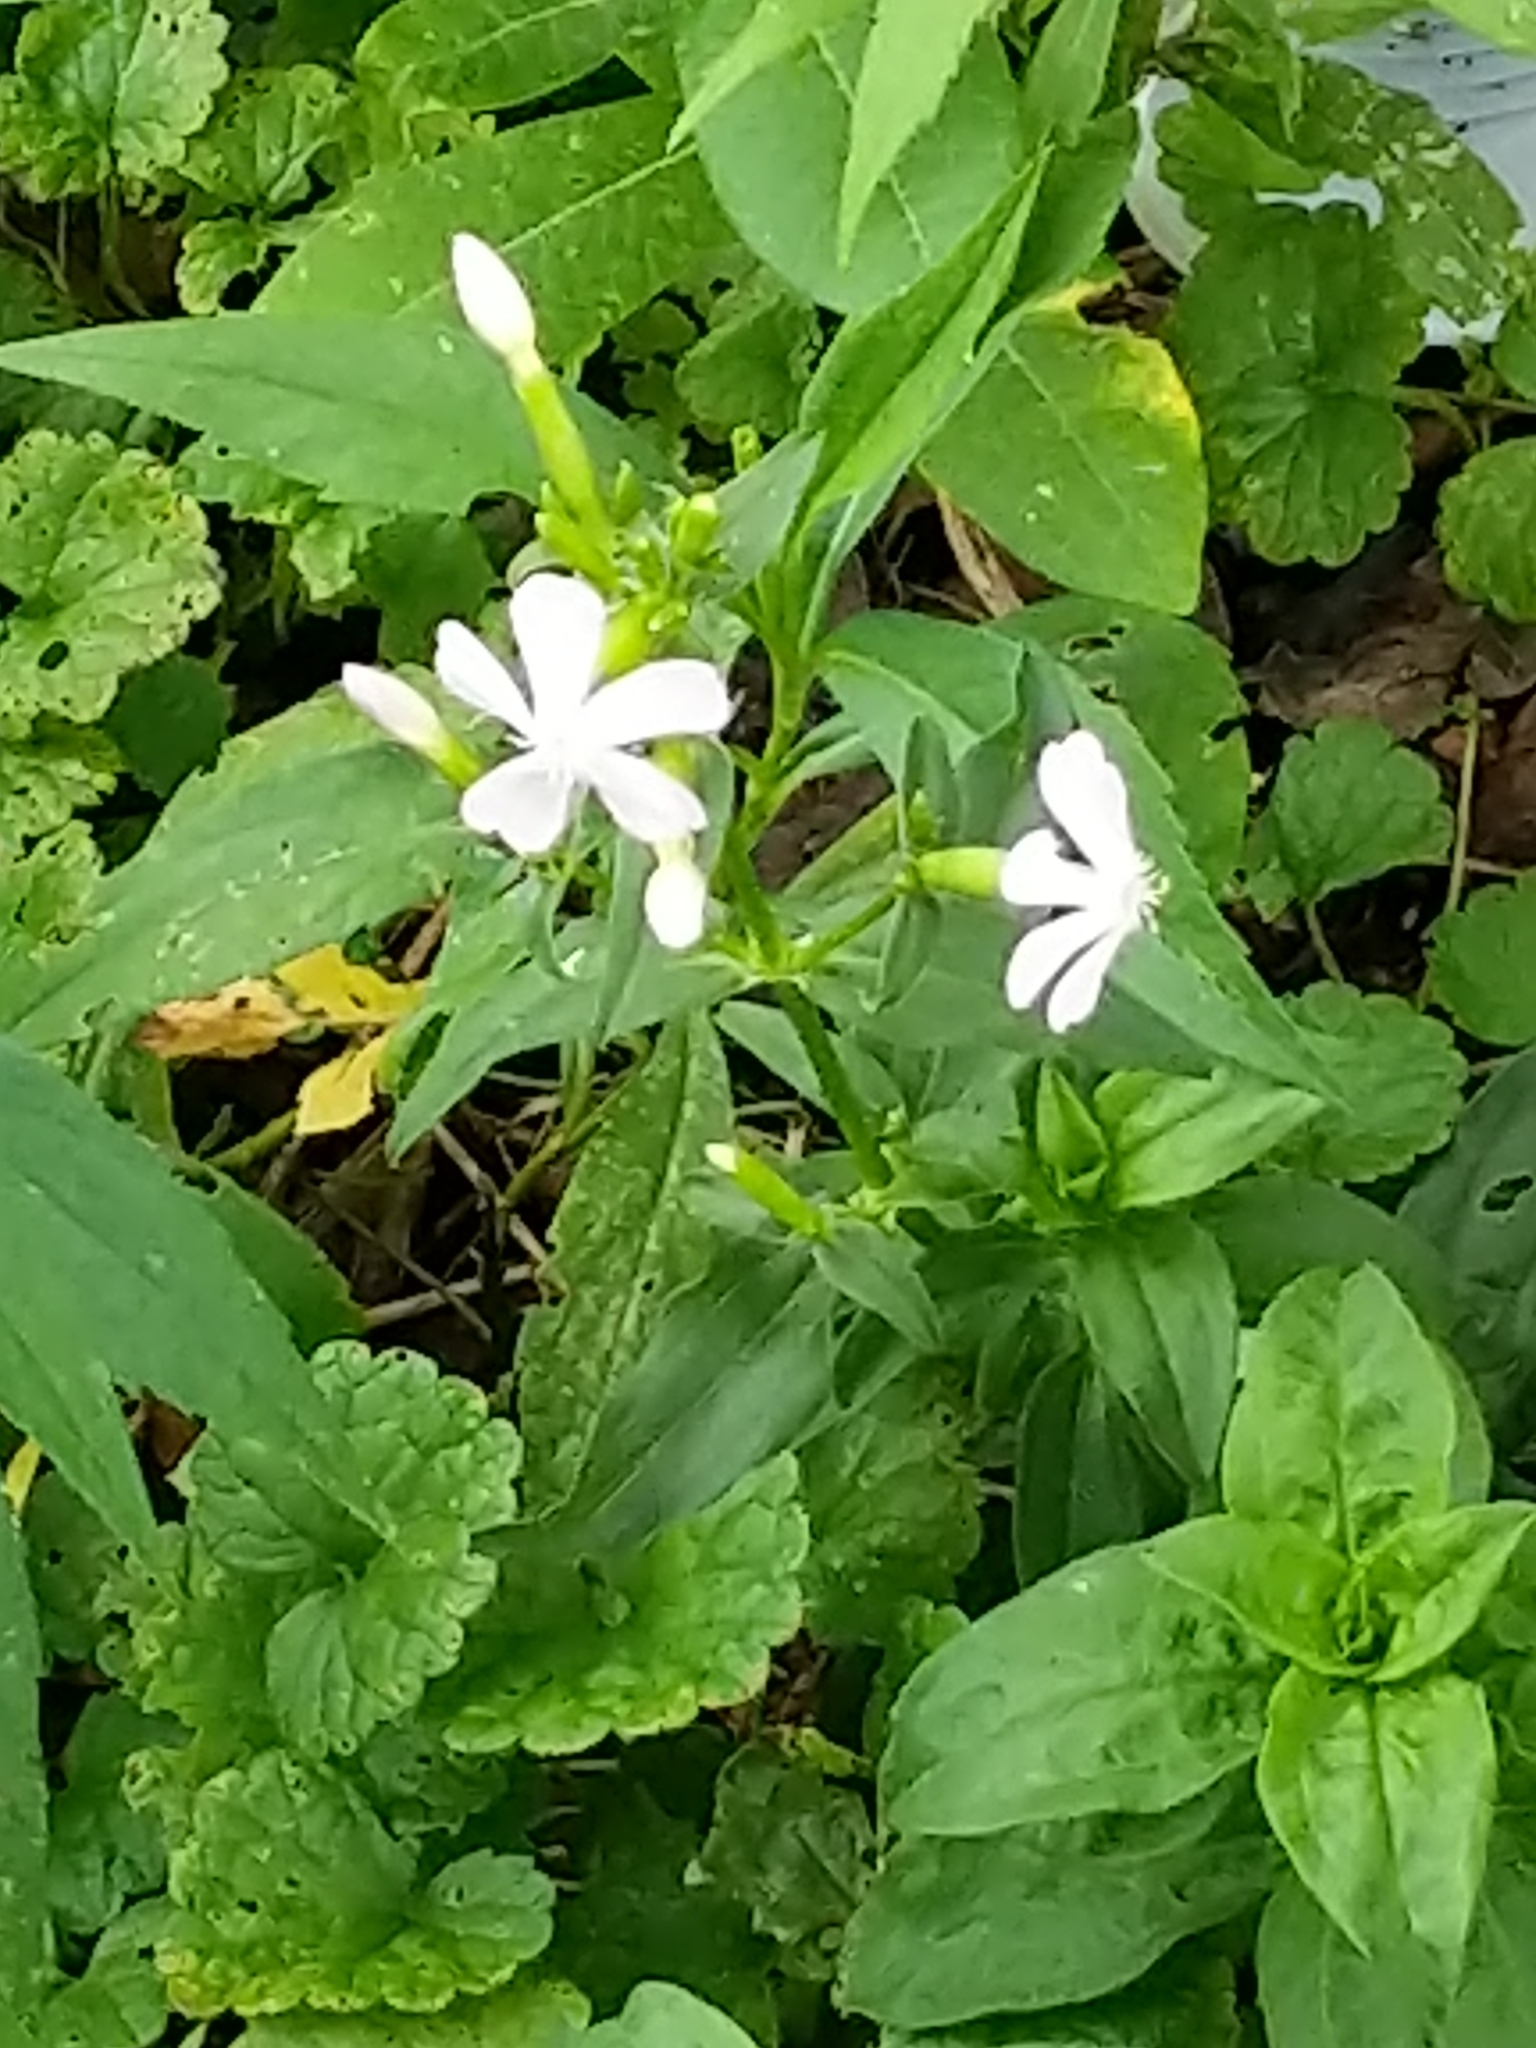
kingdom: Plantae
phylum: Tracheophyta
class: Magnoliopsida
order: Caryophyllales
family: Caryophyllaceae
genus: Saponaria
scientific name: Saponaria officinalis
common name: Soapwort
